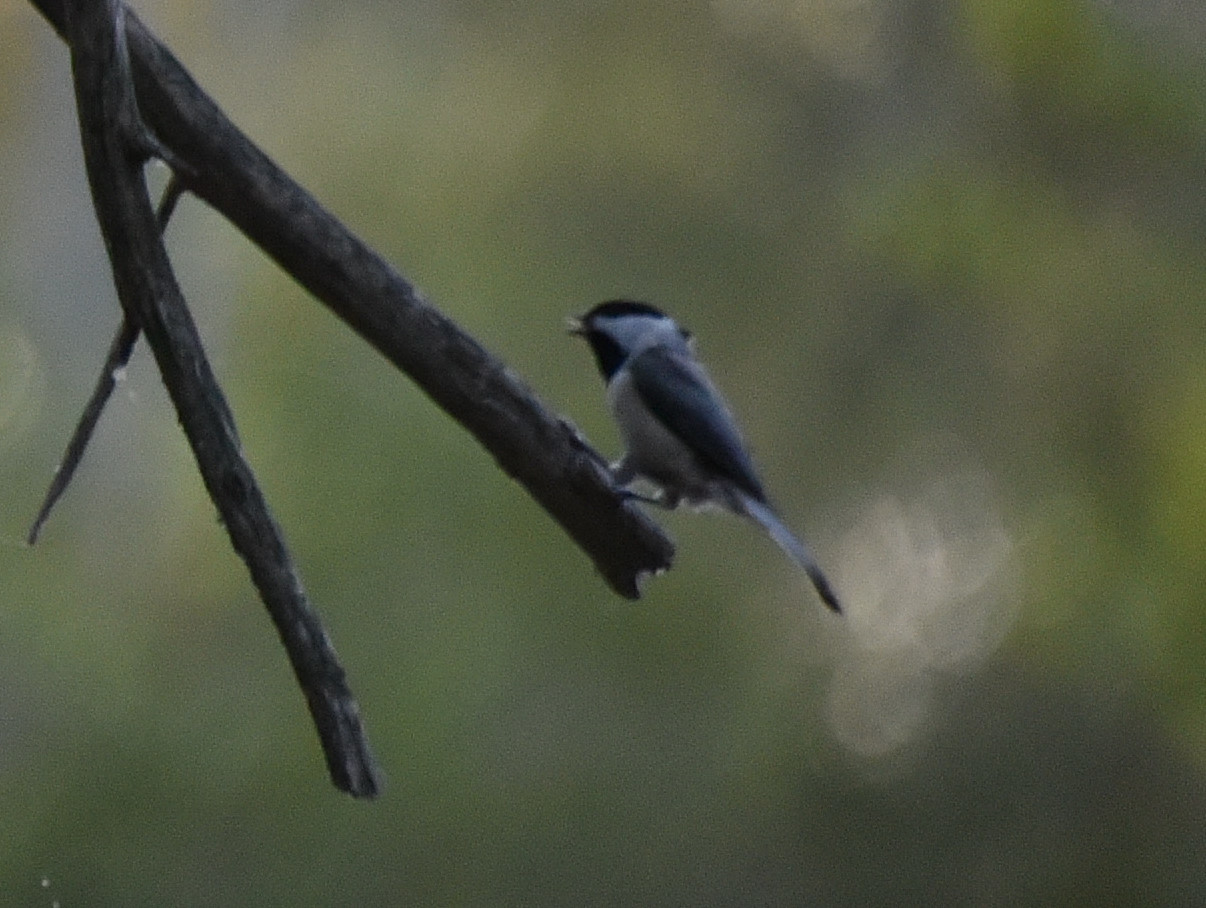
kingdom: Animalia
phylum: Chordata
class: Aves
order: Passeriformes
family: Paridae
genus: Poecile
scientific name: Poecile carolinensis
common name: Carolina chickadee
